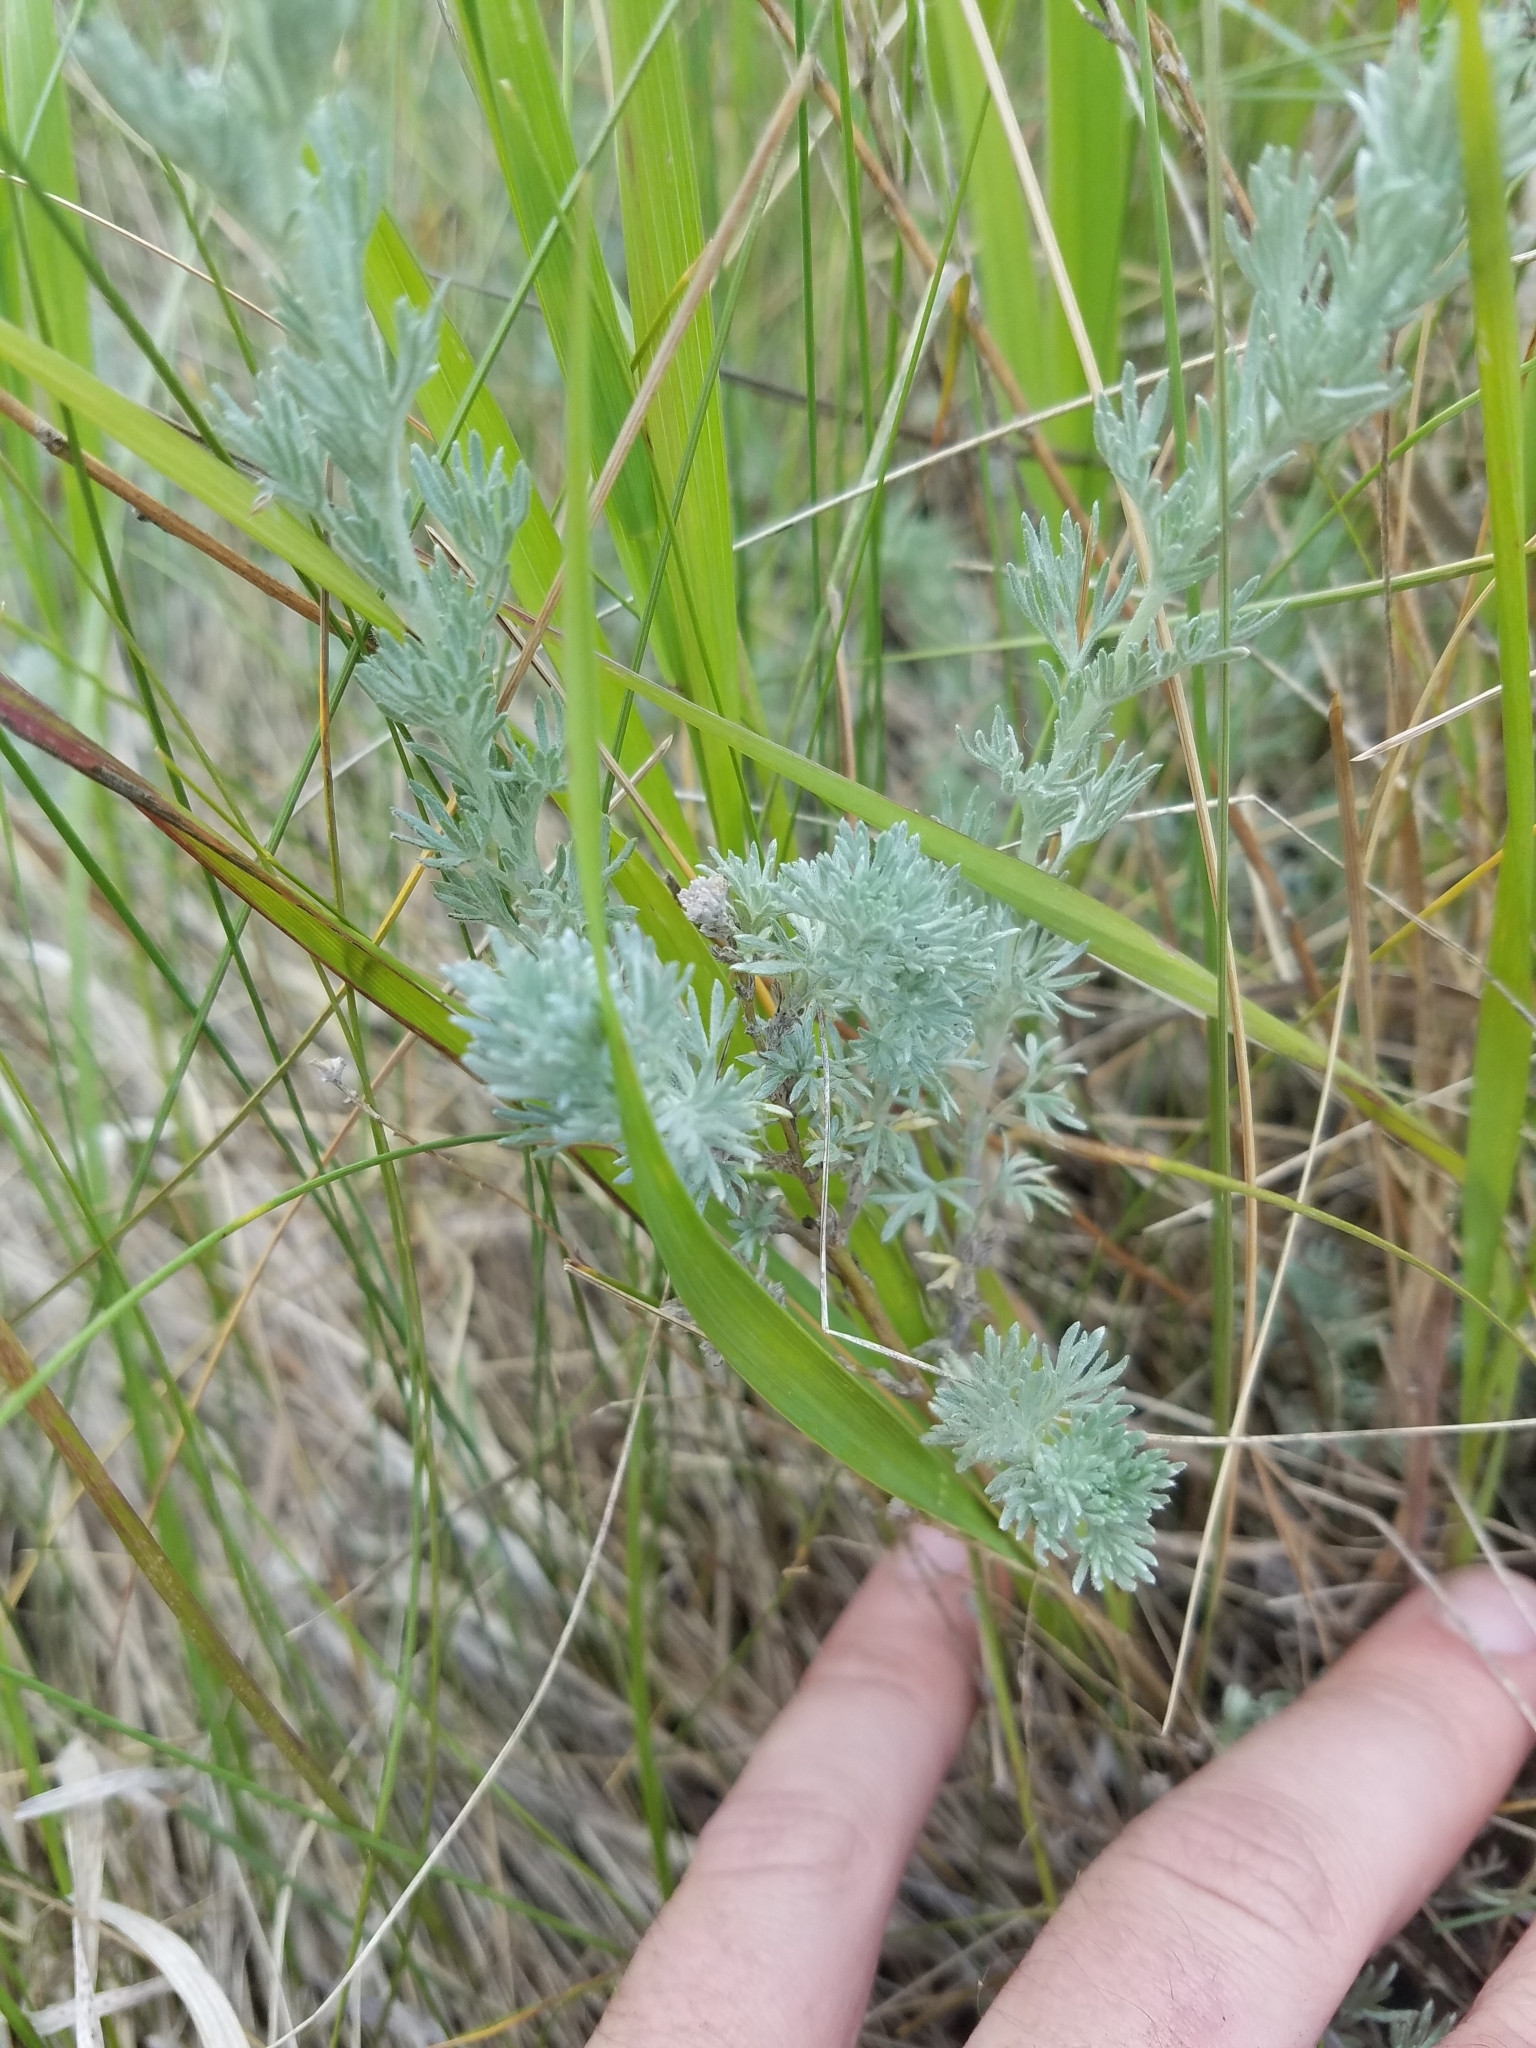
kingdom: Plantae
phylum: Tracheophyta
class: Magnoliopsida
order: Asterales
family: Asteraceae
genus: Artemisia
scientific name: Artemisia frigida
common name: Prairie sagewort
